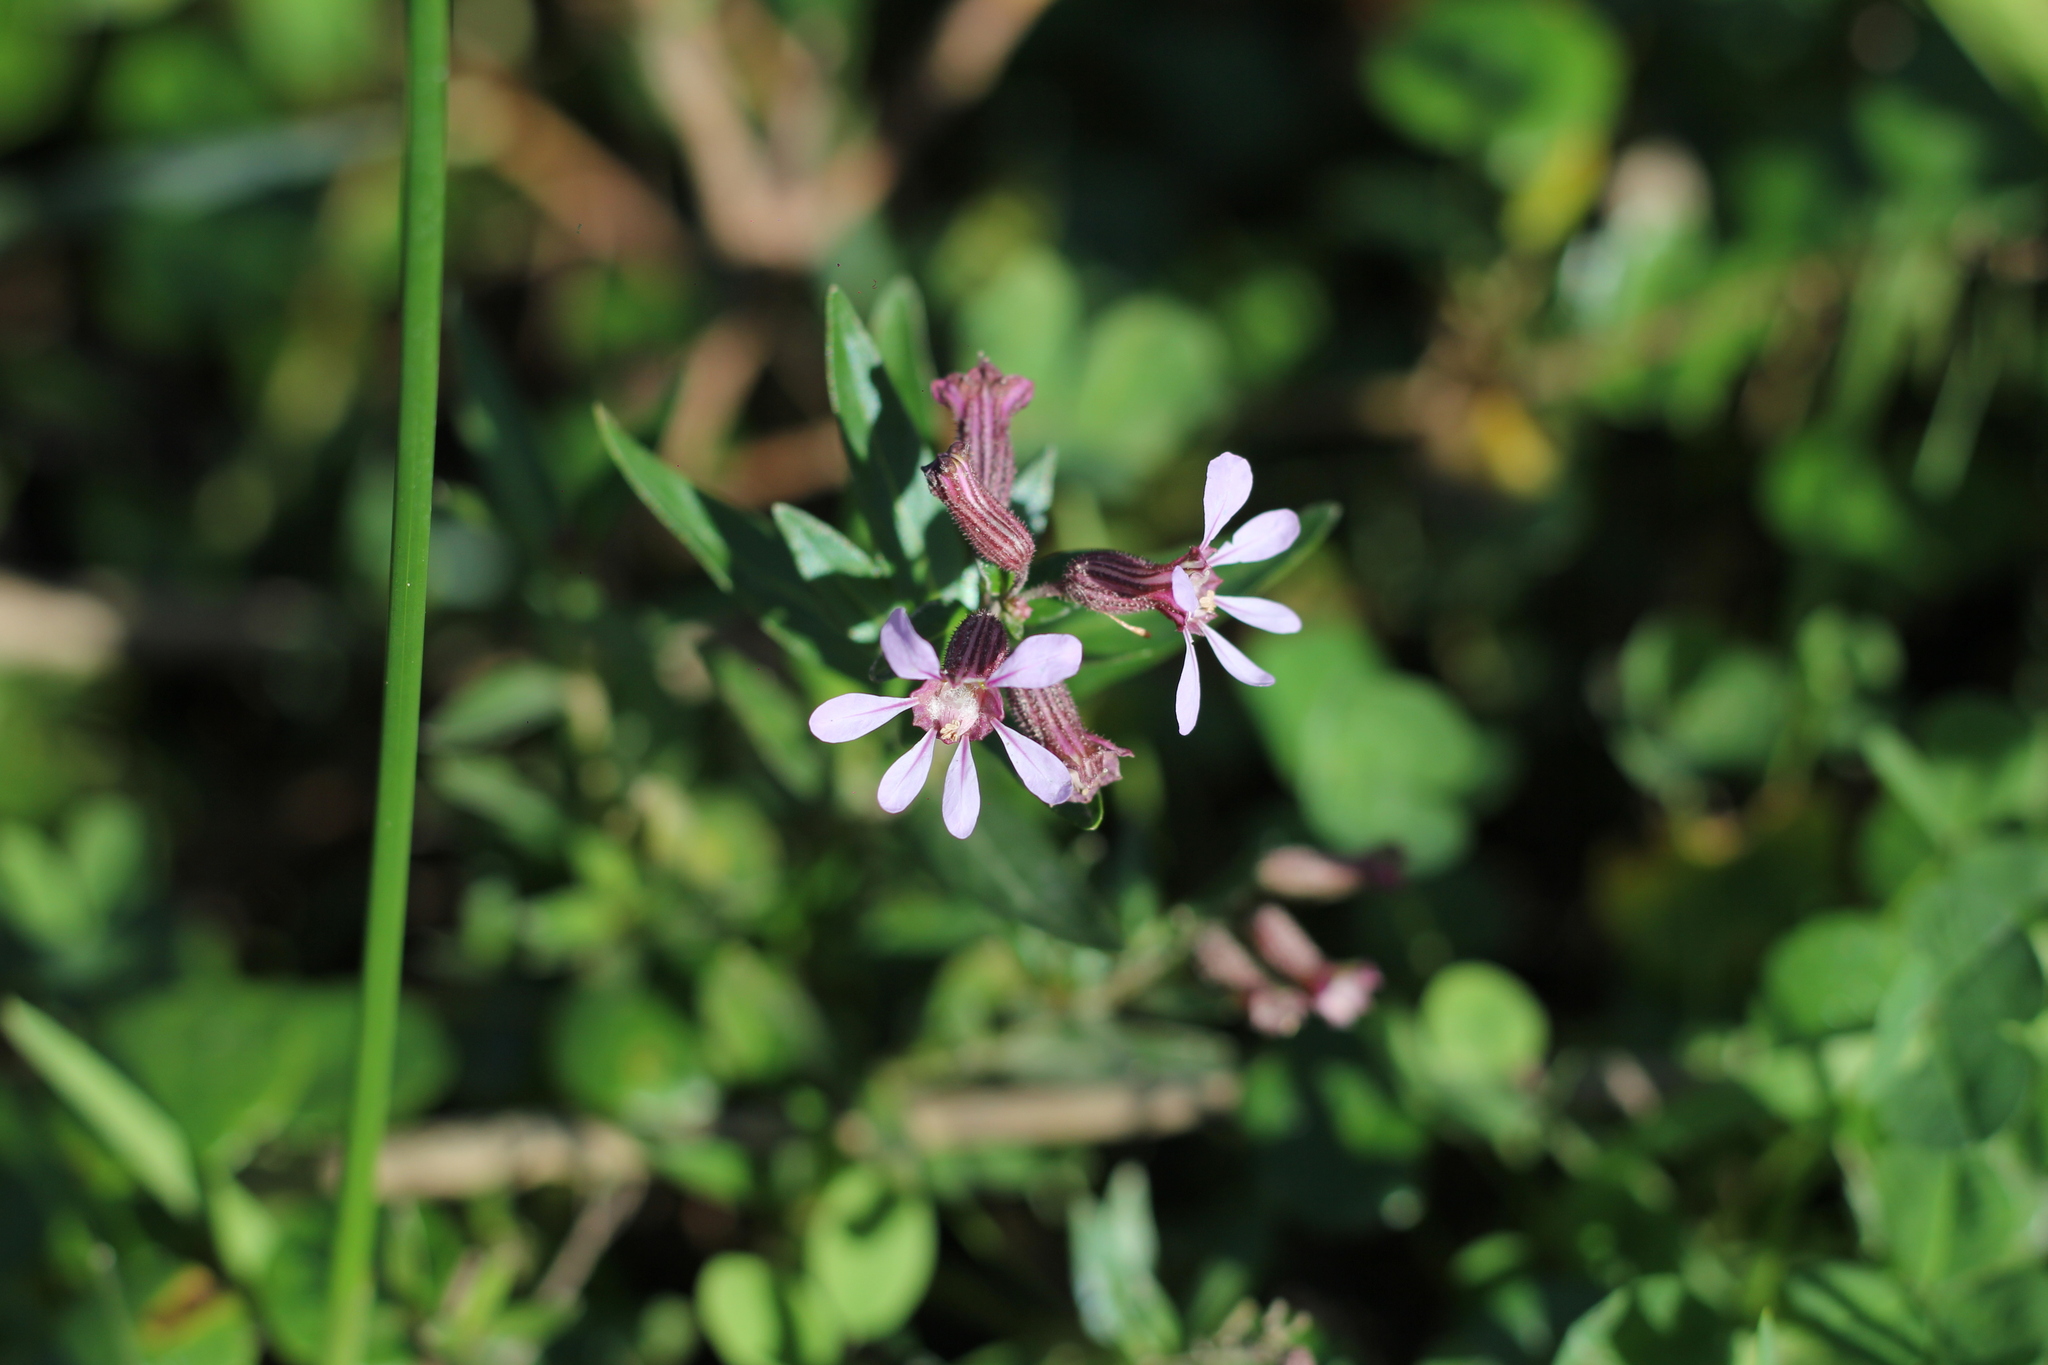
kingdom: Plantae
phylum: Tracheophyta
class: Magnoliopsida
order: Myrtales
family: Lythraceae
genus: Cuphea
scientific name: Cuphea fruticosa
